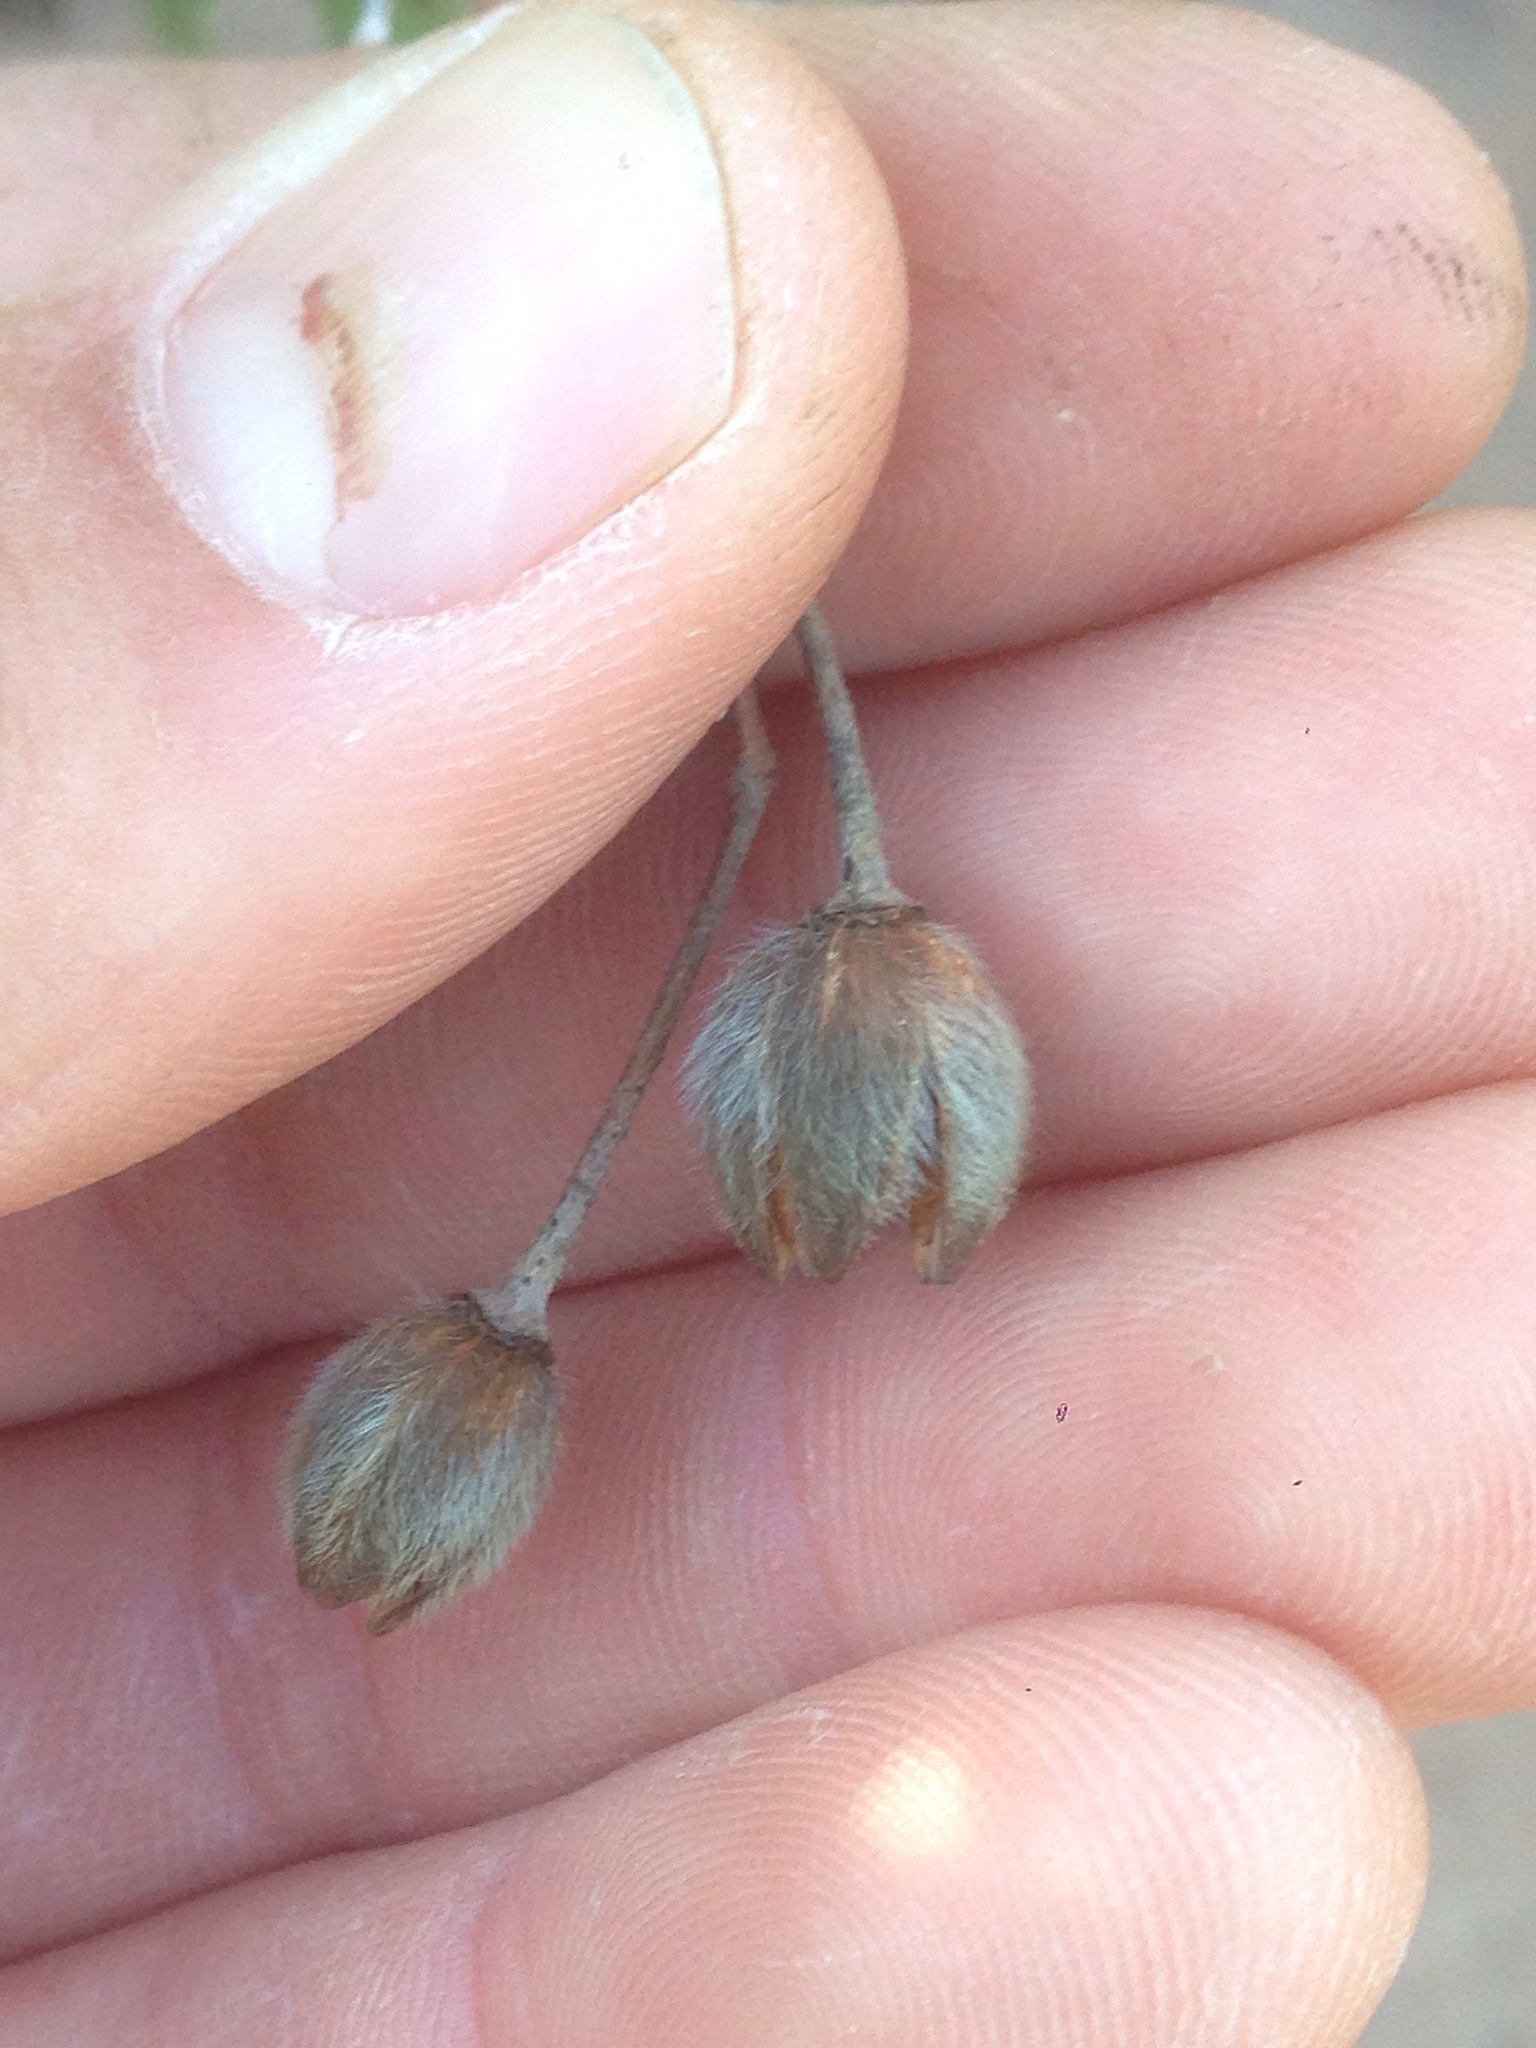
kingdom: Plantae
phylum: Tracheophyta
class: Magnoliopsida
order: Malvales
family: Cistaceae
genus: Cistus
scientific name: Cistus creticus
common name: Cretan rockrose
